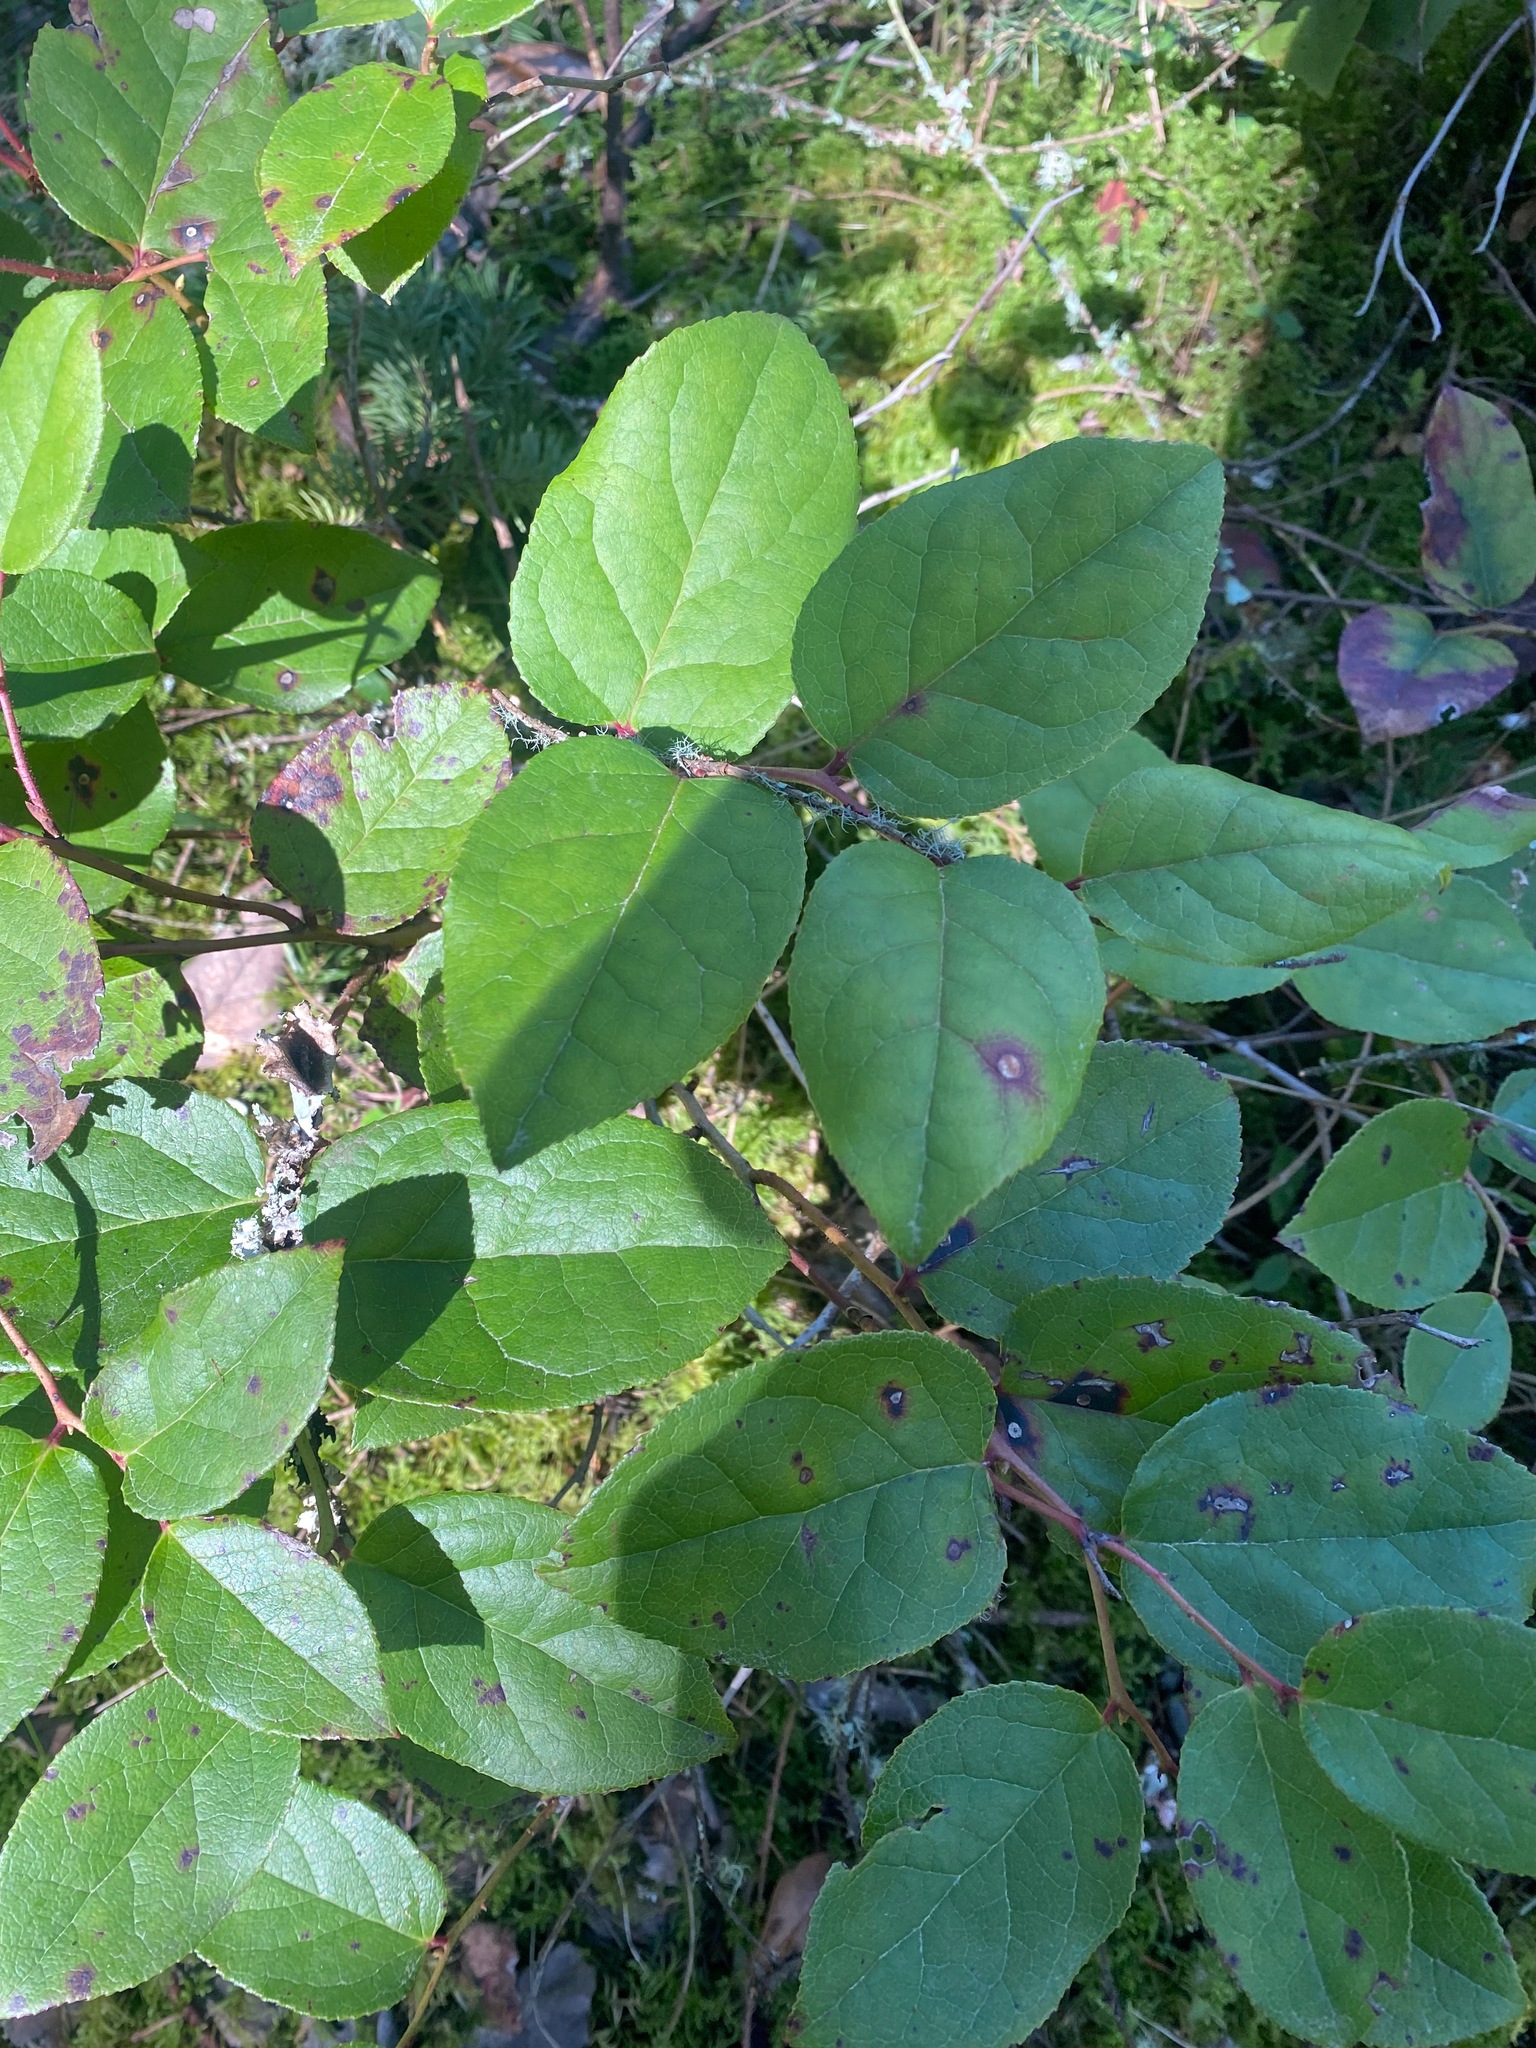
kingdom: Plantae
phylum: Tracheophyta
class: Magnoliopsida
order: Ericales
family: Ericaceae
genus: Gaultheria
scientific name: Gaultheria shallon
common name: Shallon
